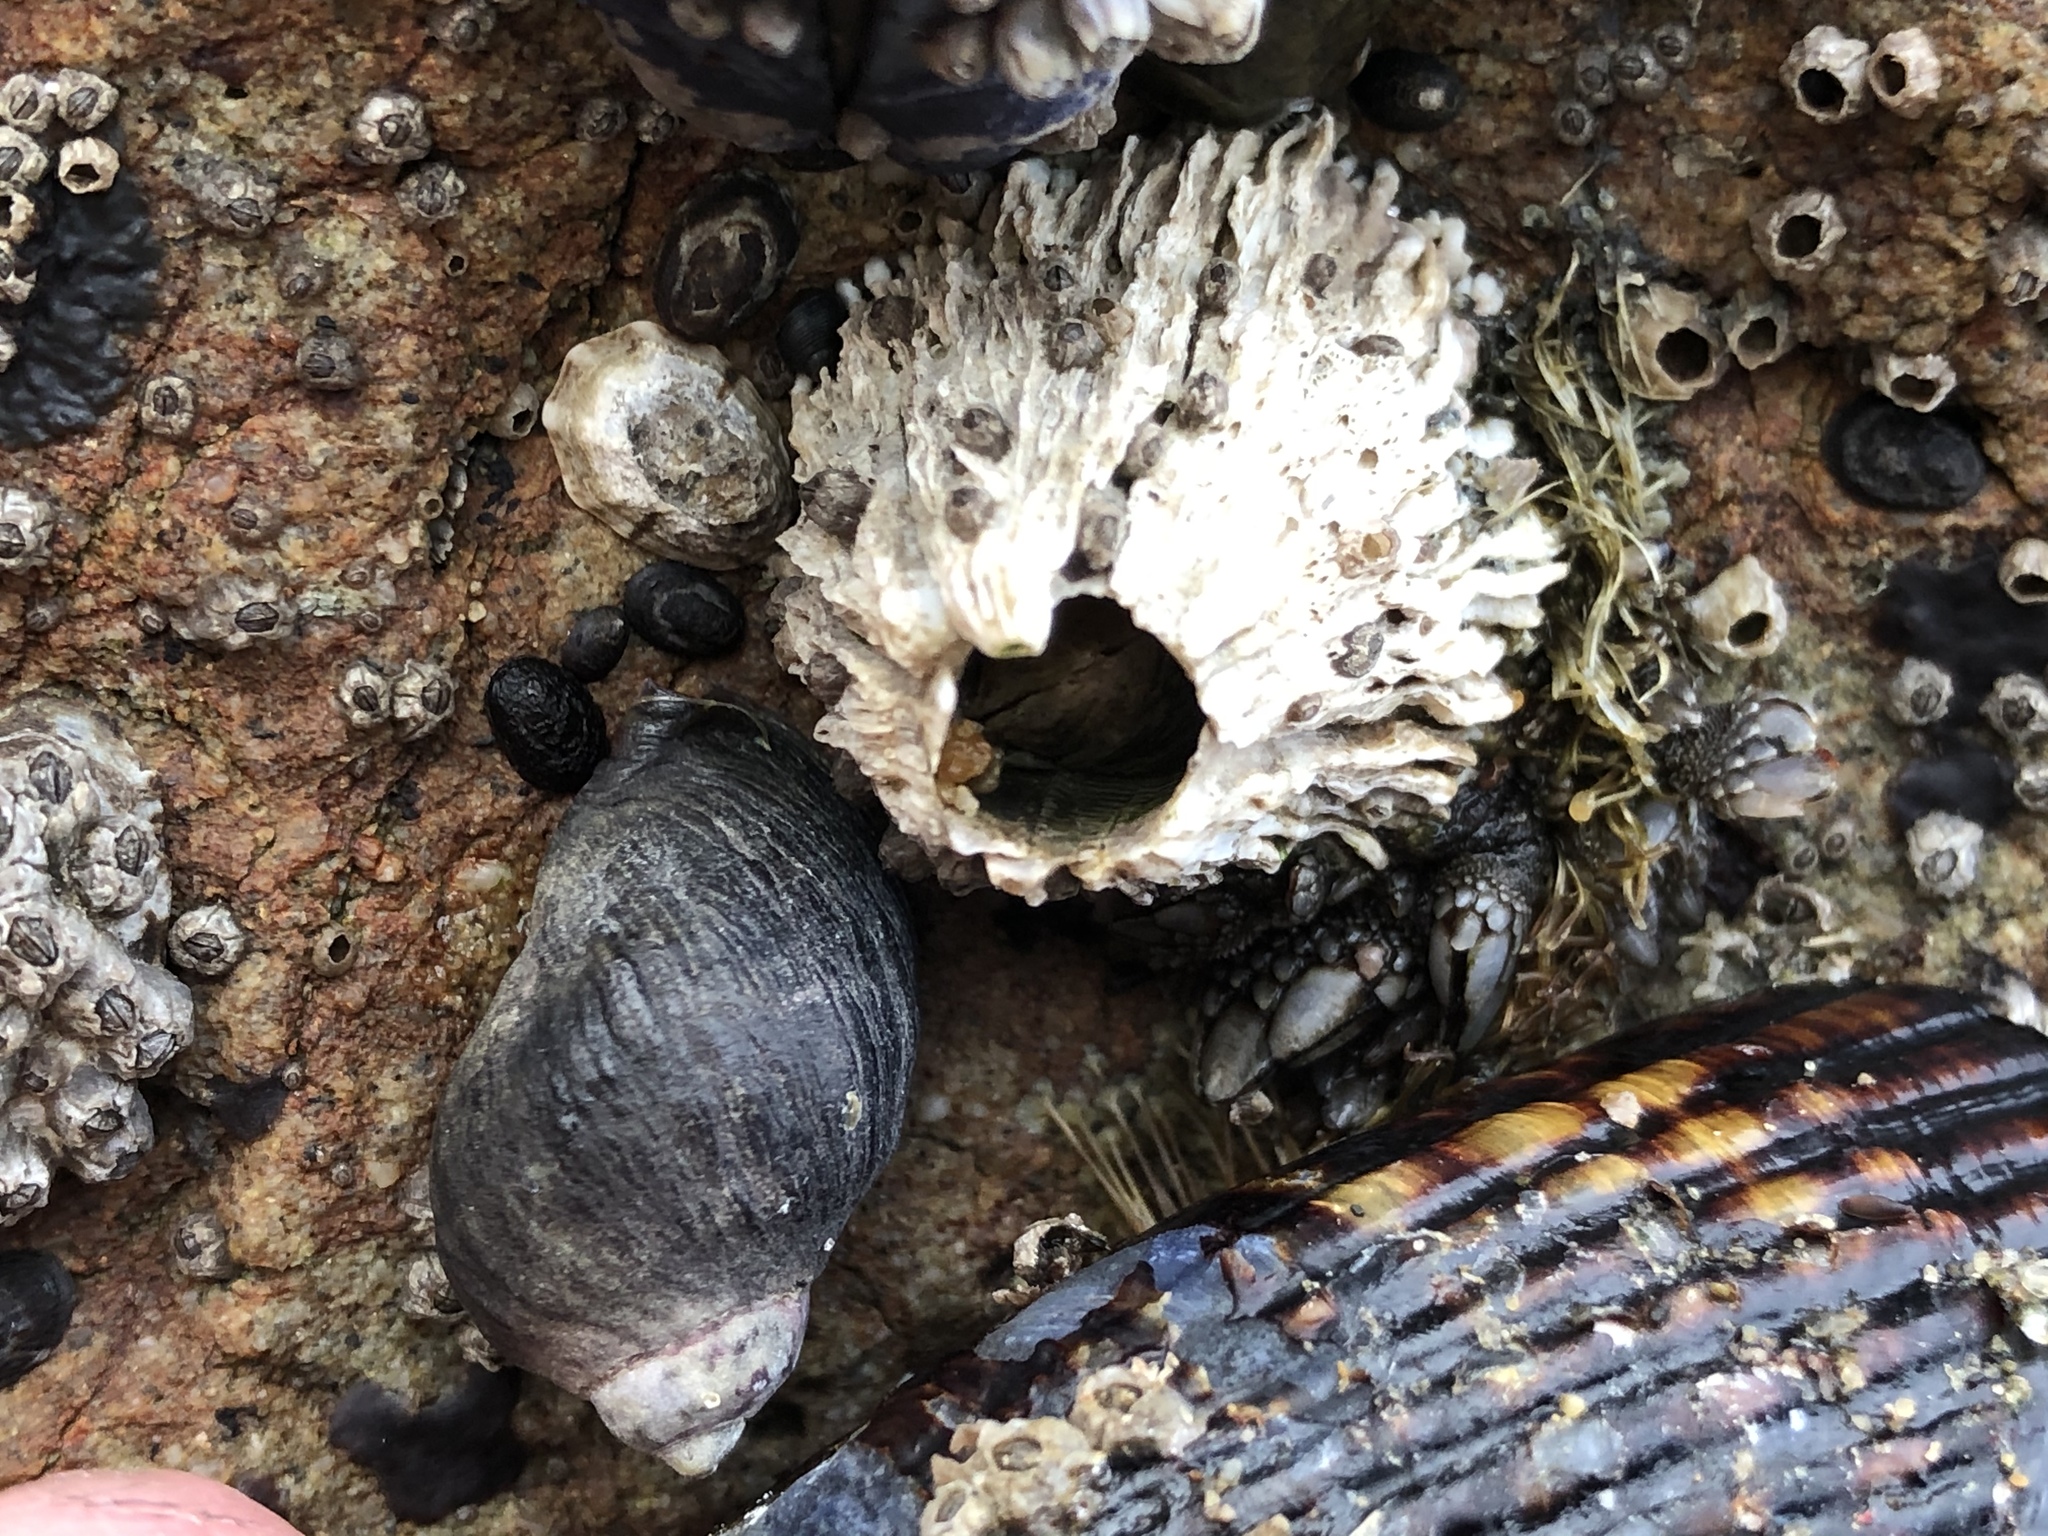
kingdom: Animalia
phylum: Arthropoda
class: Maxillopoda
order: Sessilia
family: Archaeobalanidae
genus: Semibalanus
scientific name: Semibalanus cariosus
